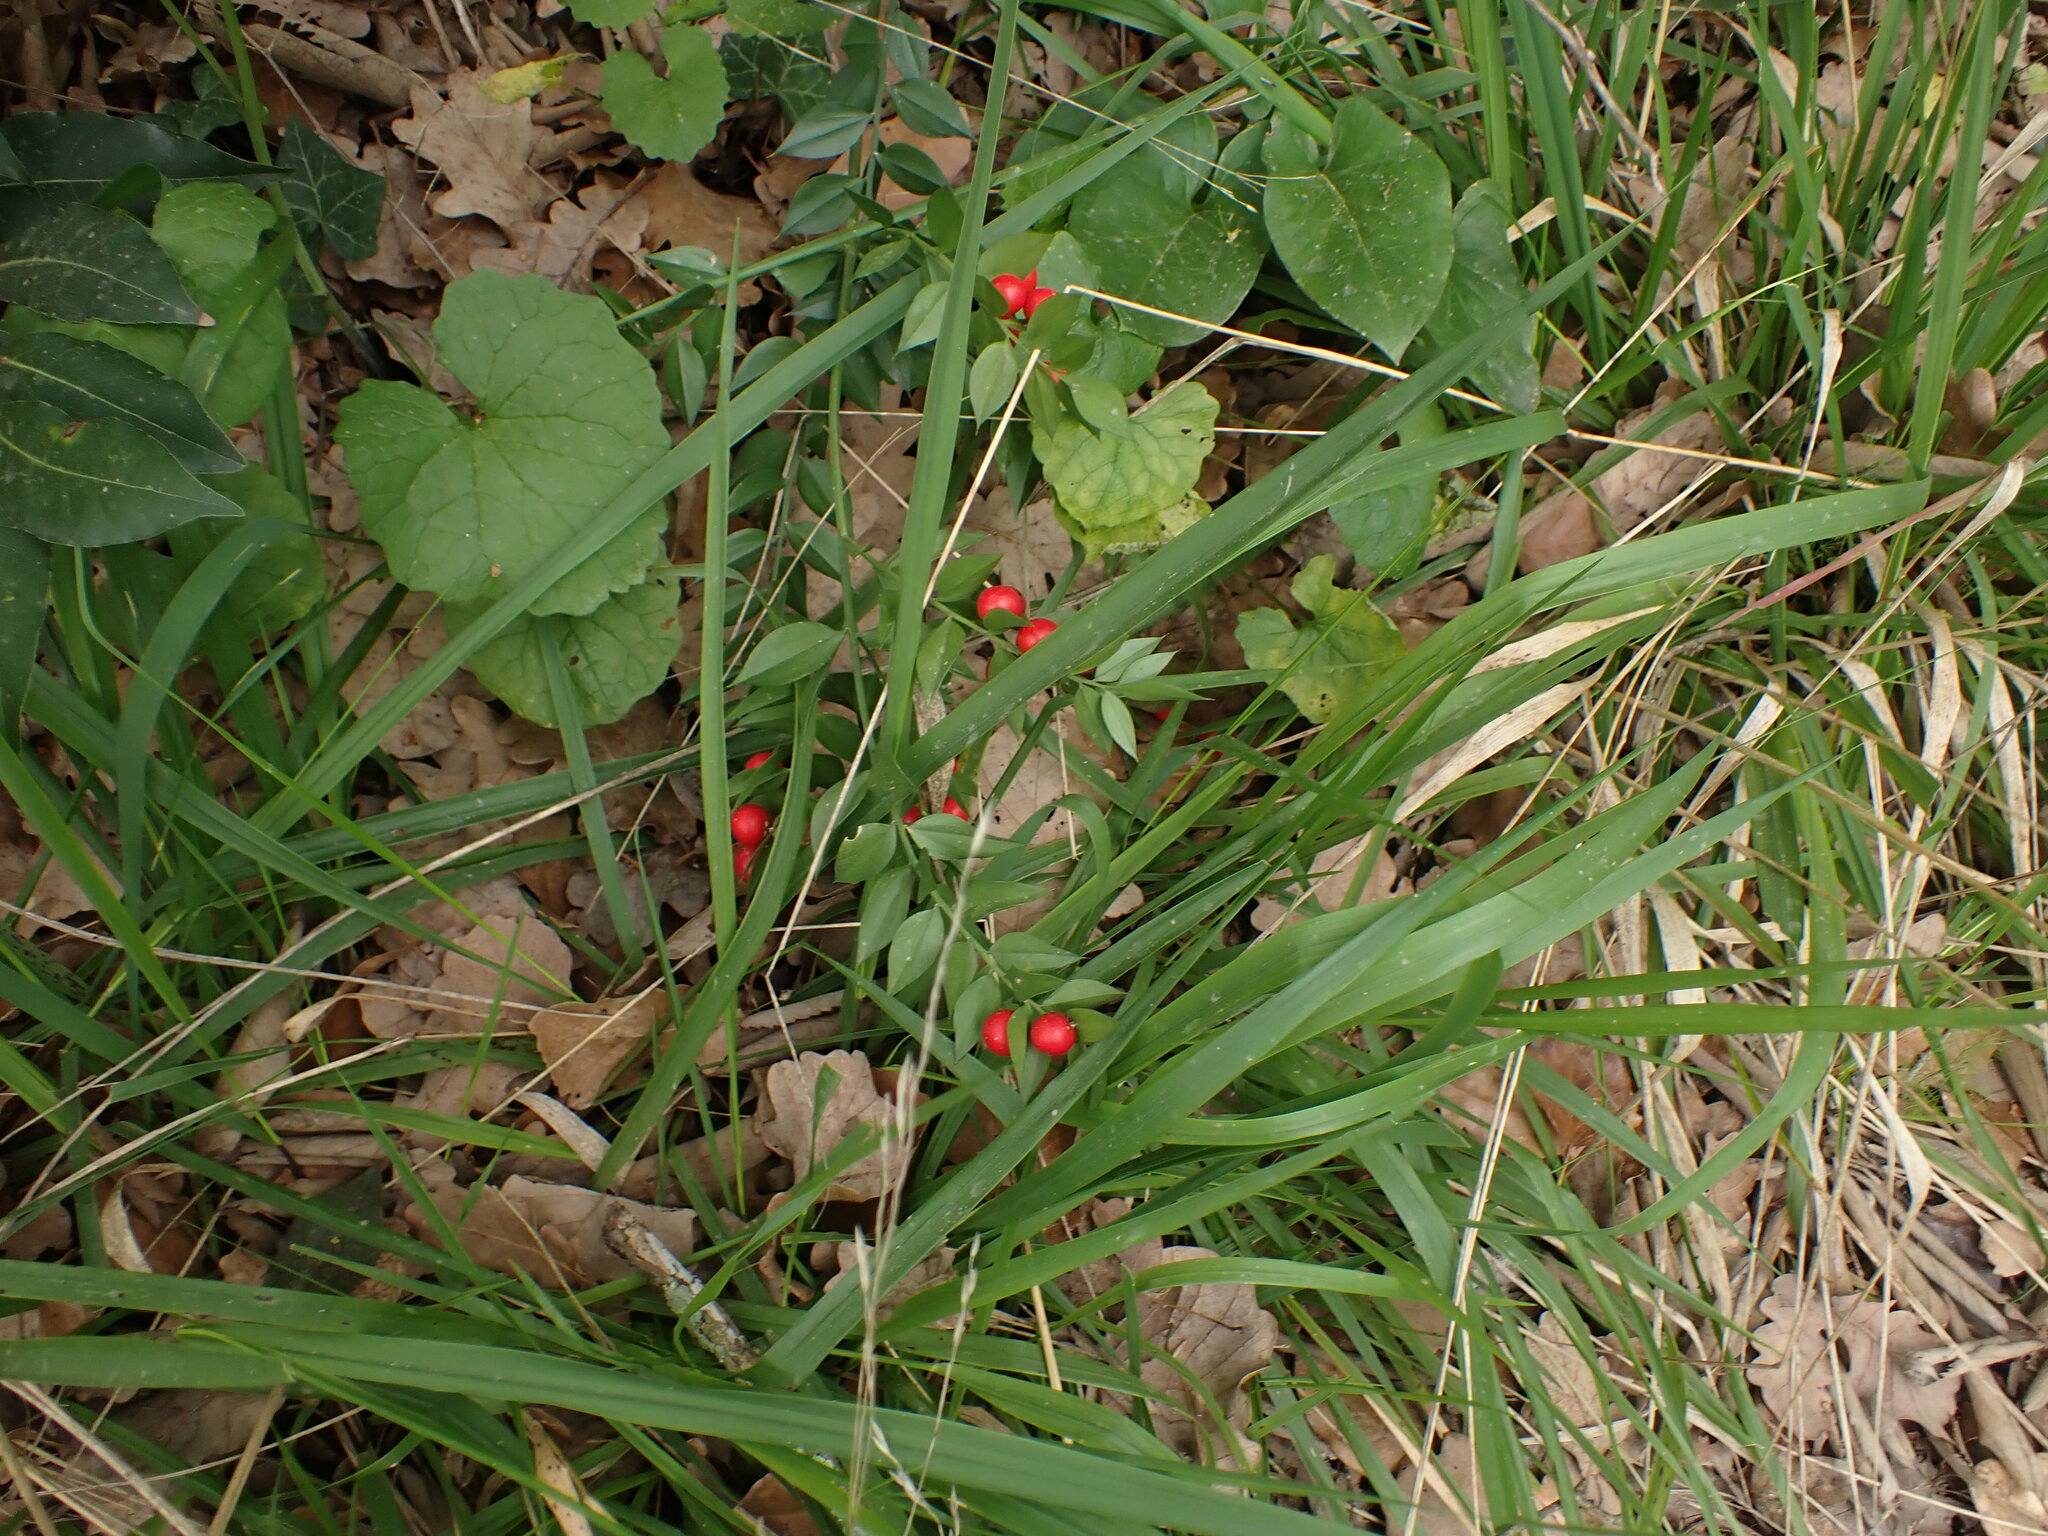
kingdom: Plantae
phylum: Tracheophyta
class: Liliopsida
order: Asparagales
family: Asparagaceae
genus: Ruscus
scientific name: Ruscus aculeatus
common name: Butcher's-broom
